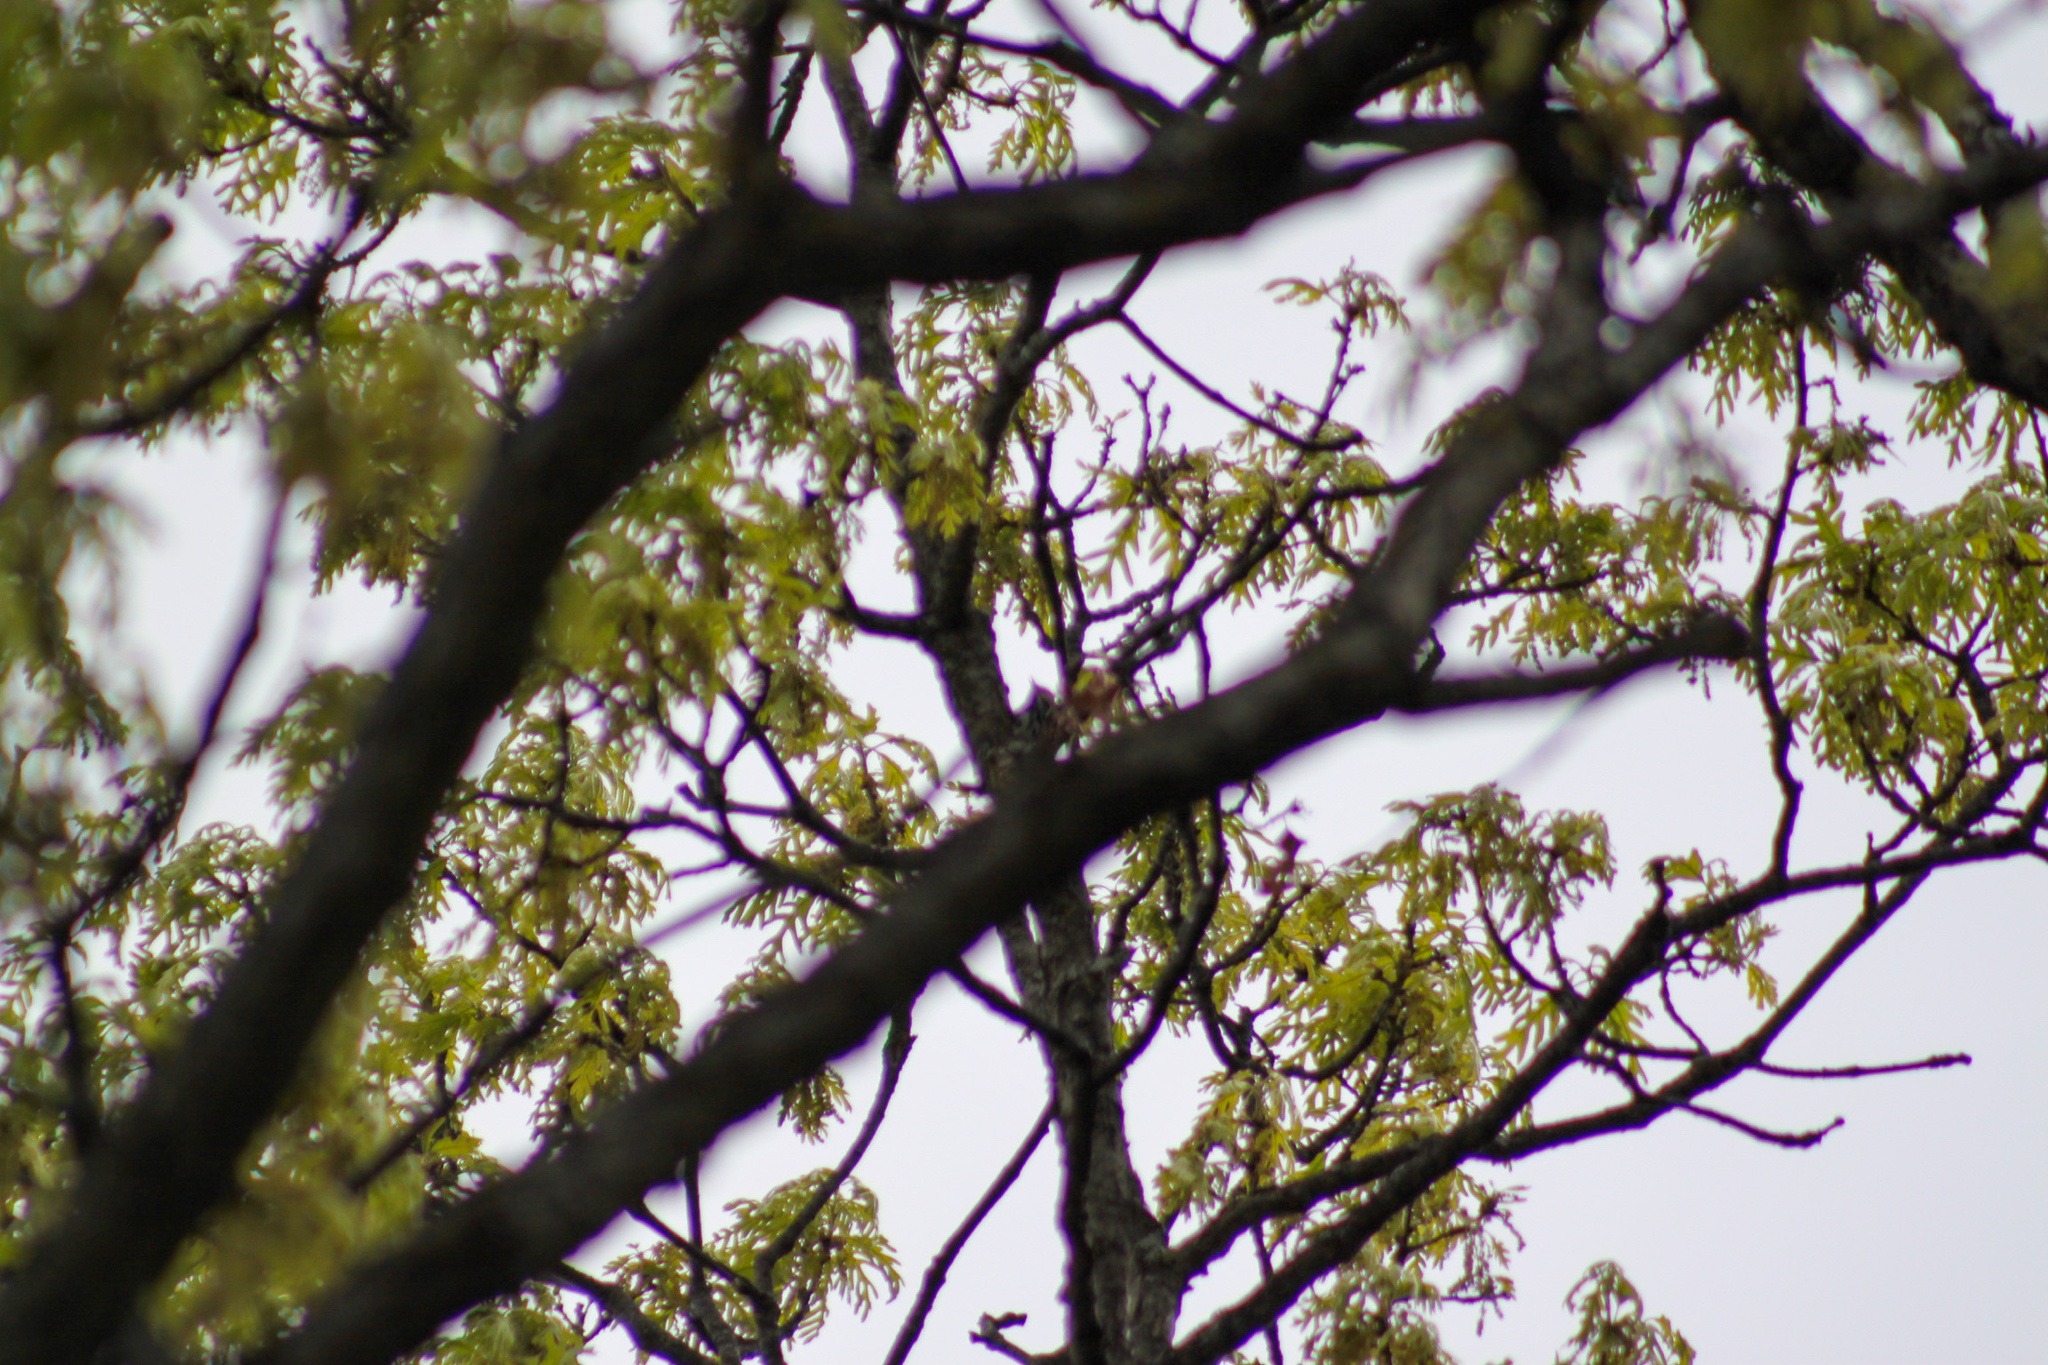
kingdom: Animalia
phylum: Chordata
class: Aves
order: Passeriformes
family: Parulidae
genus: Mniotilta
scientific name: Mniotilta varia
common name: Black-and-white warbler
